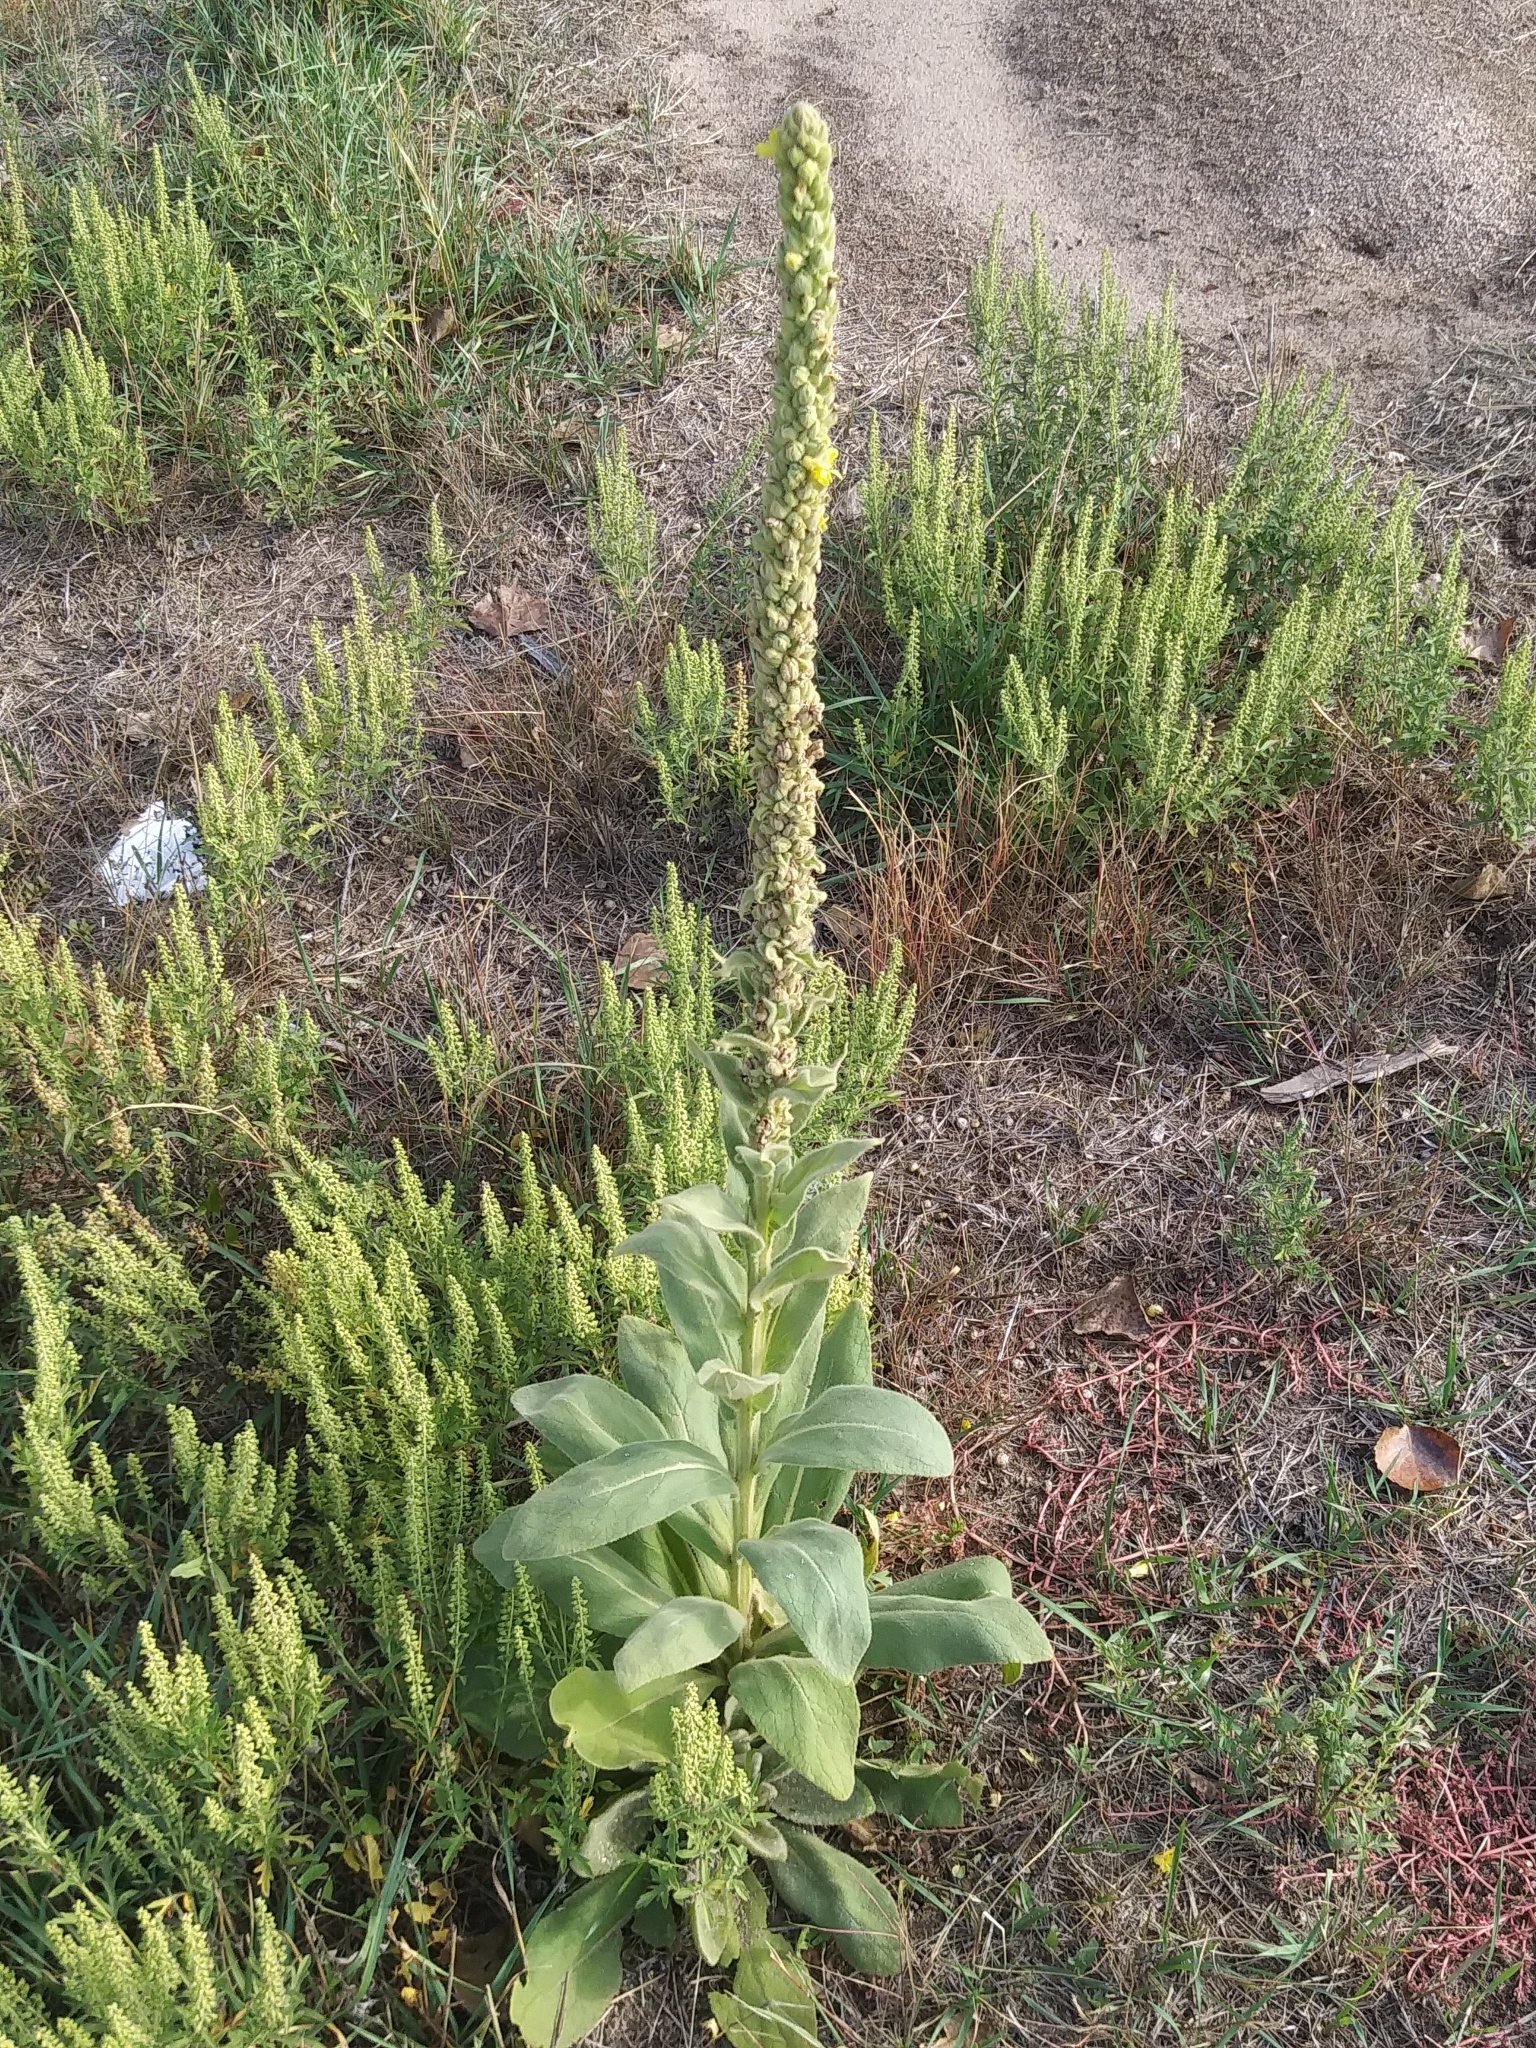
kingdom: Plantae
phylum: Tracheophyta
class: Magnoliopsida
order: Lamiales
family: Scrophulariaceae
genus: Verbascum
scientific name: Verbascum thapsus
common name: Common mullein
